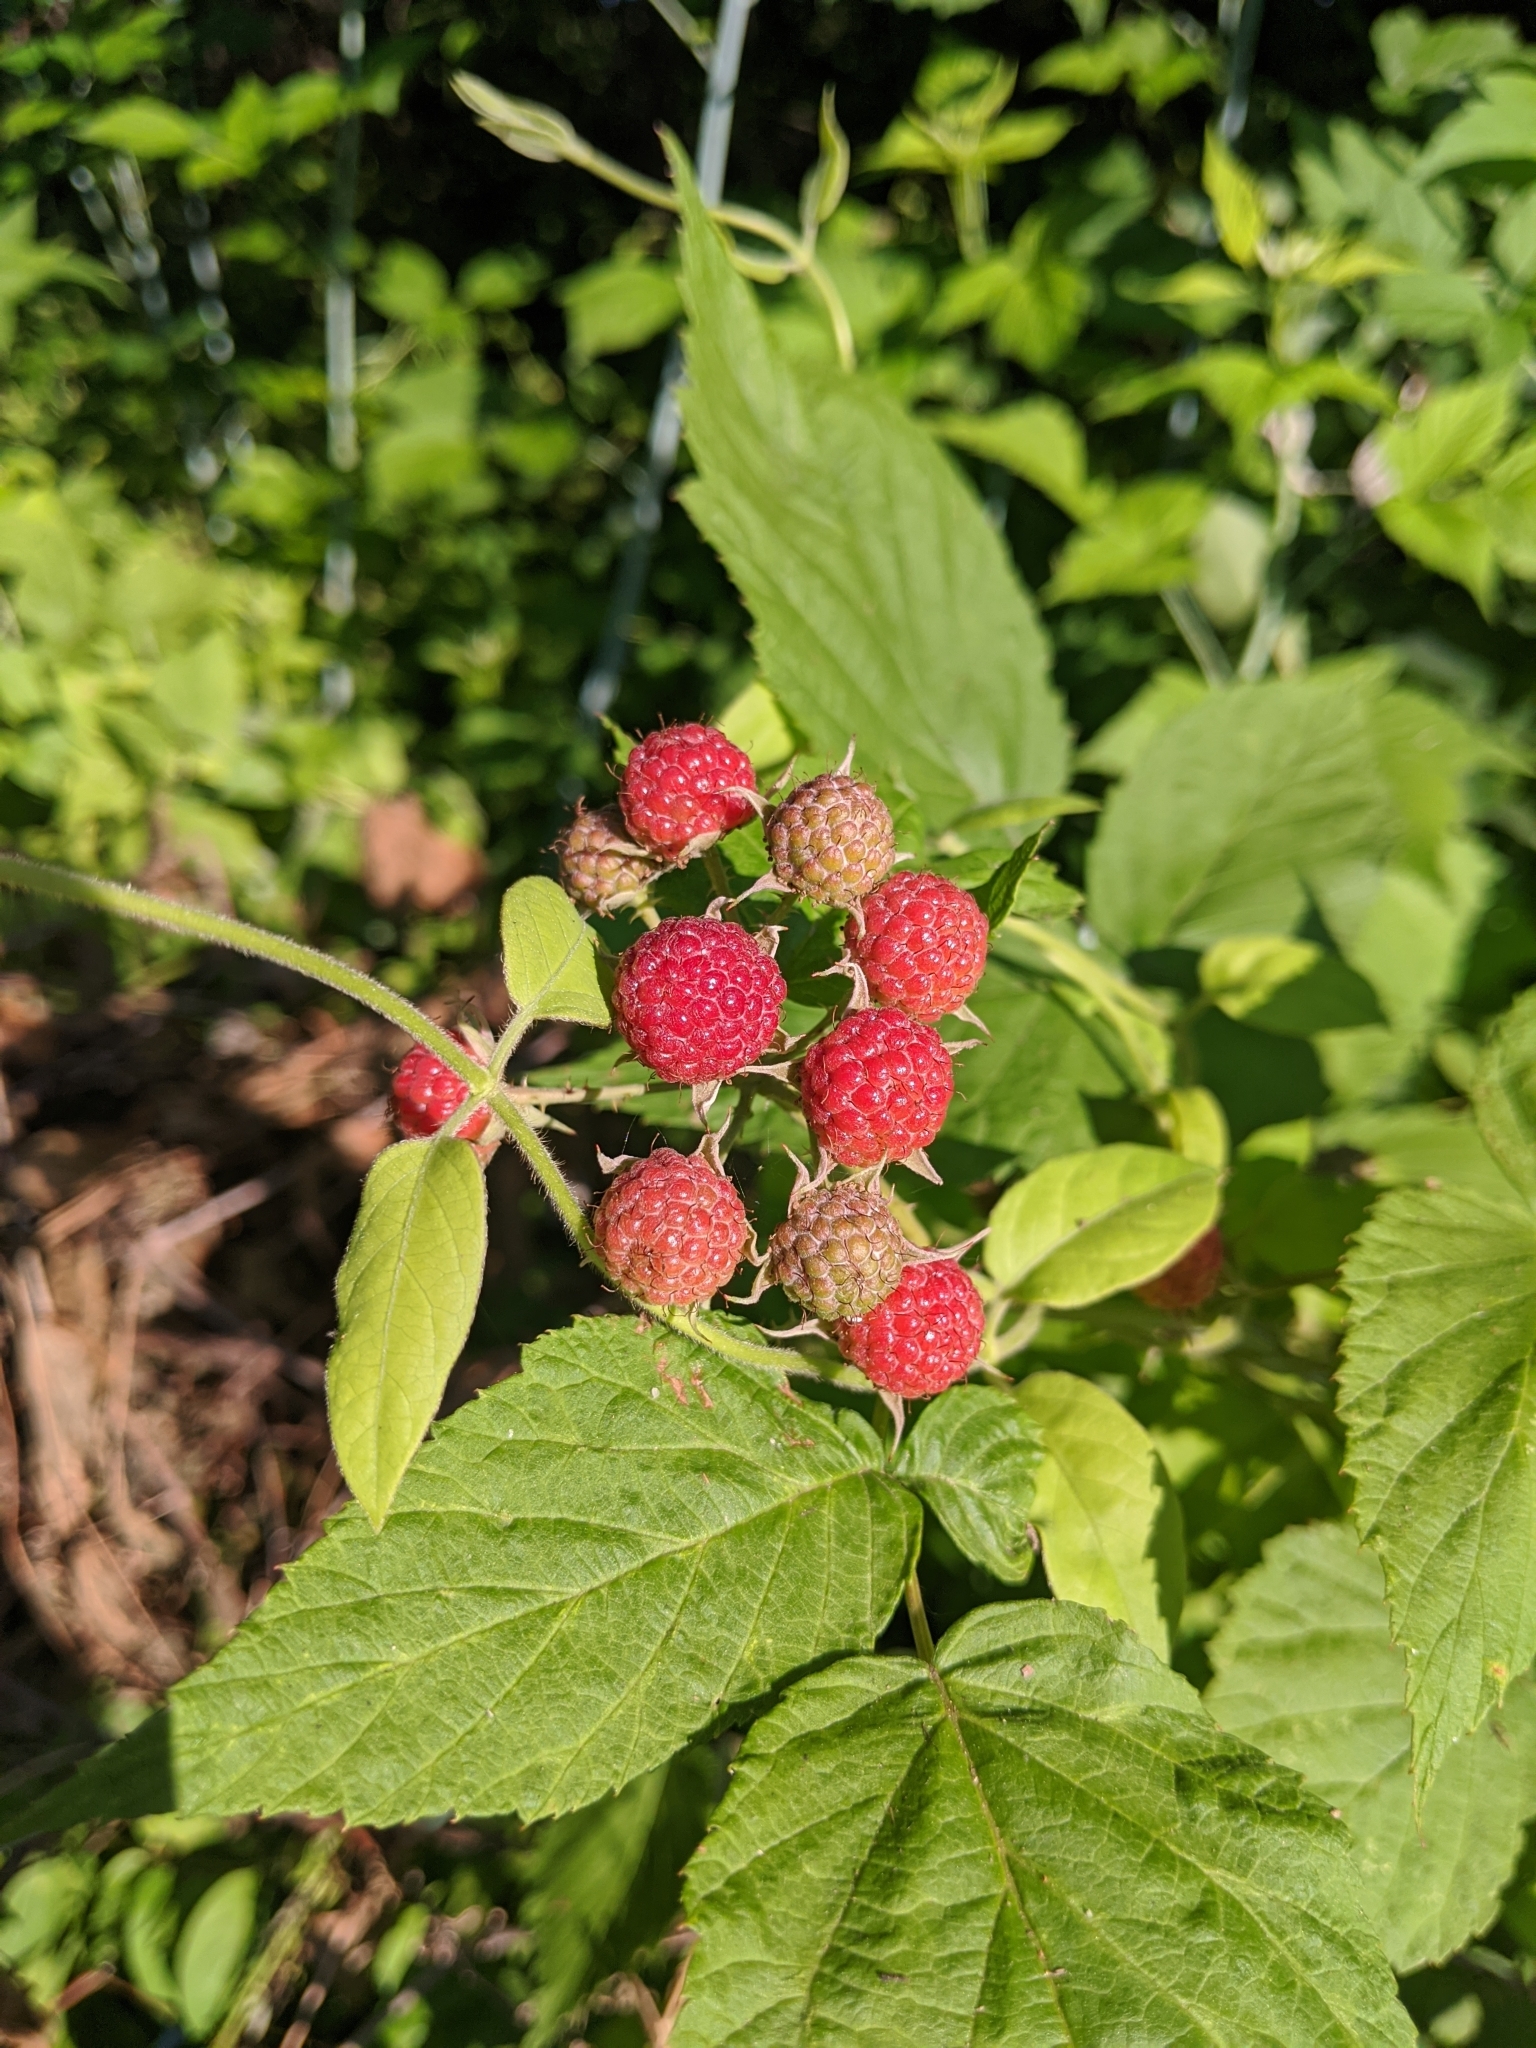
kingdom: Plantae
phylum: Tracheophyta
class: Magnoliopsida
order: Rosales
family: Rosaceae
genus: Rubus
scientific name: Rubus occidentalis
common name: Black raspberry
